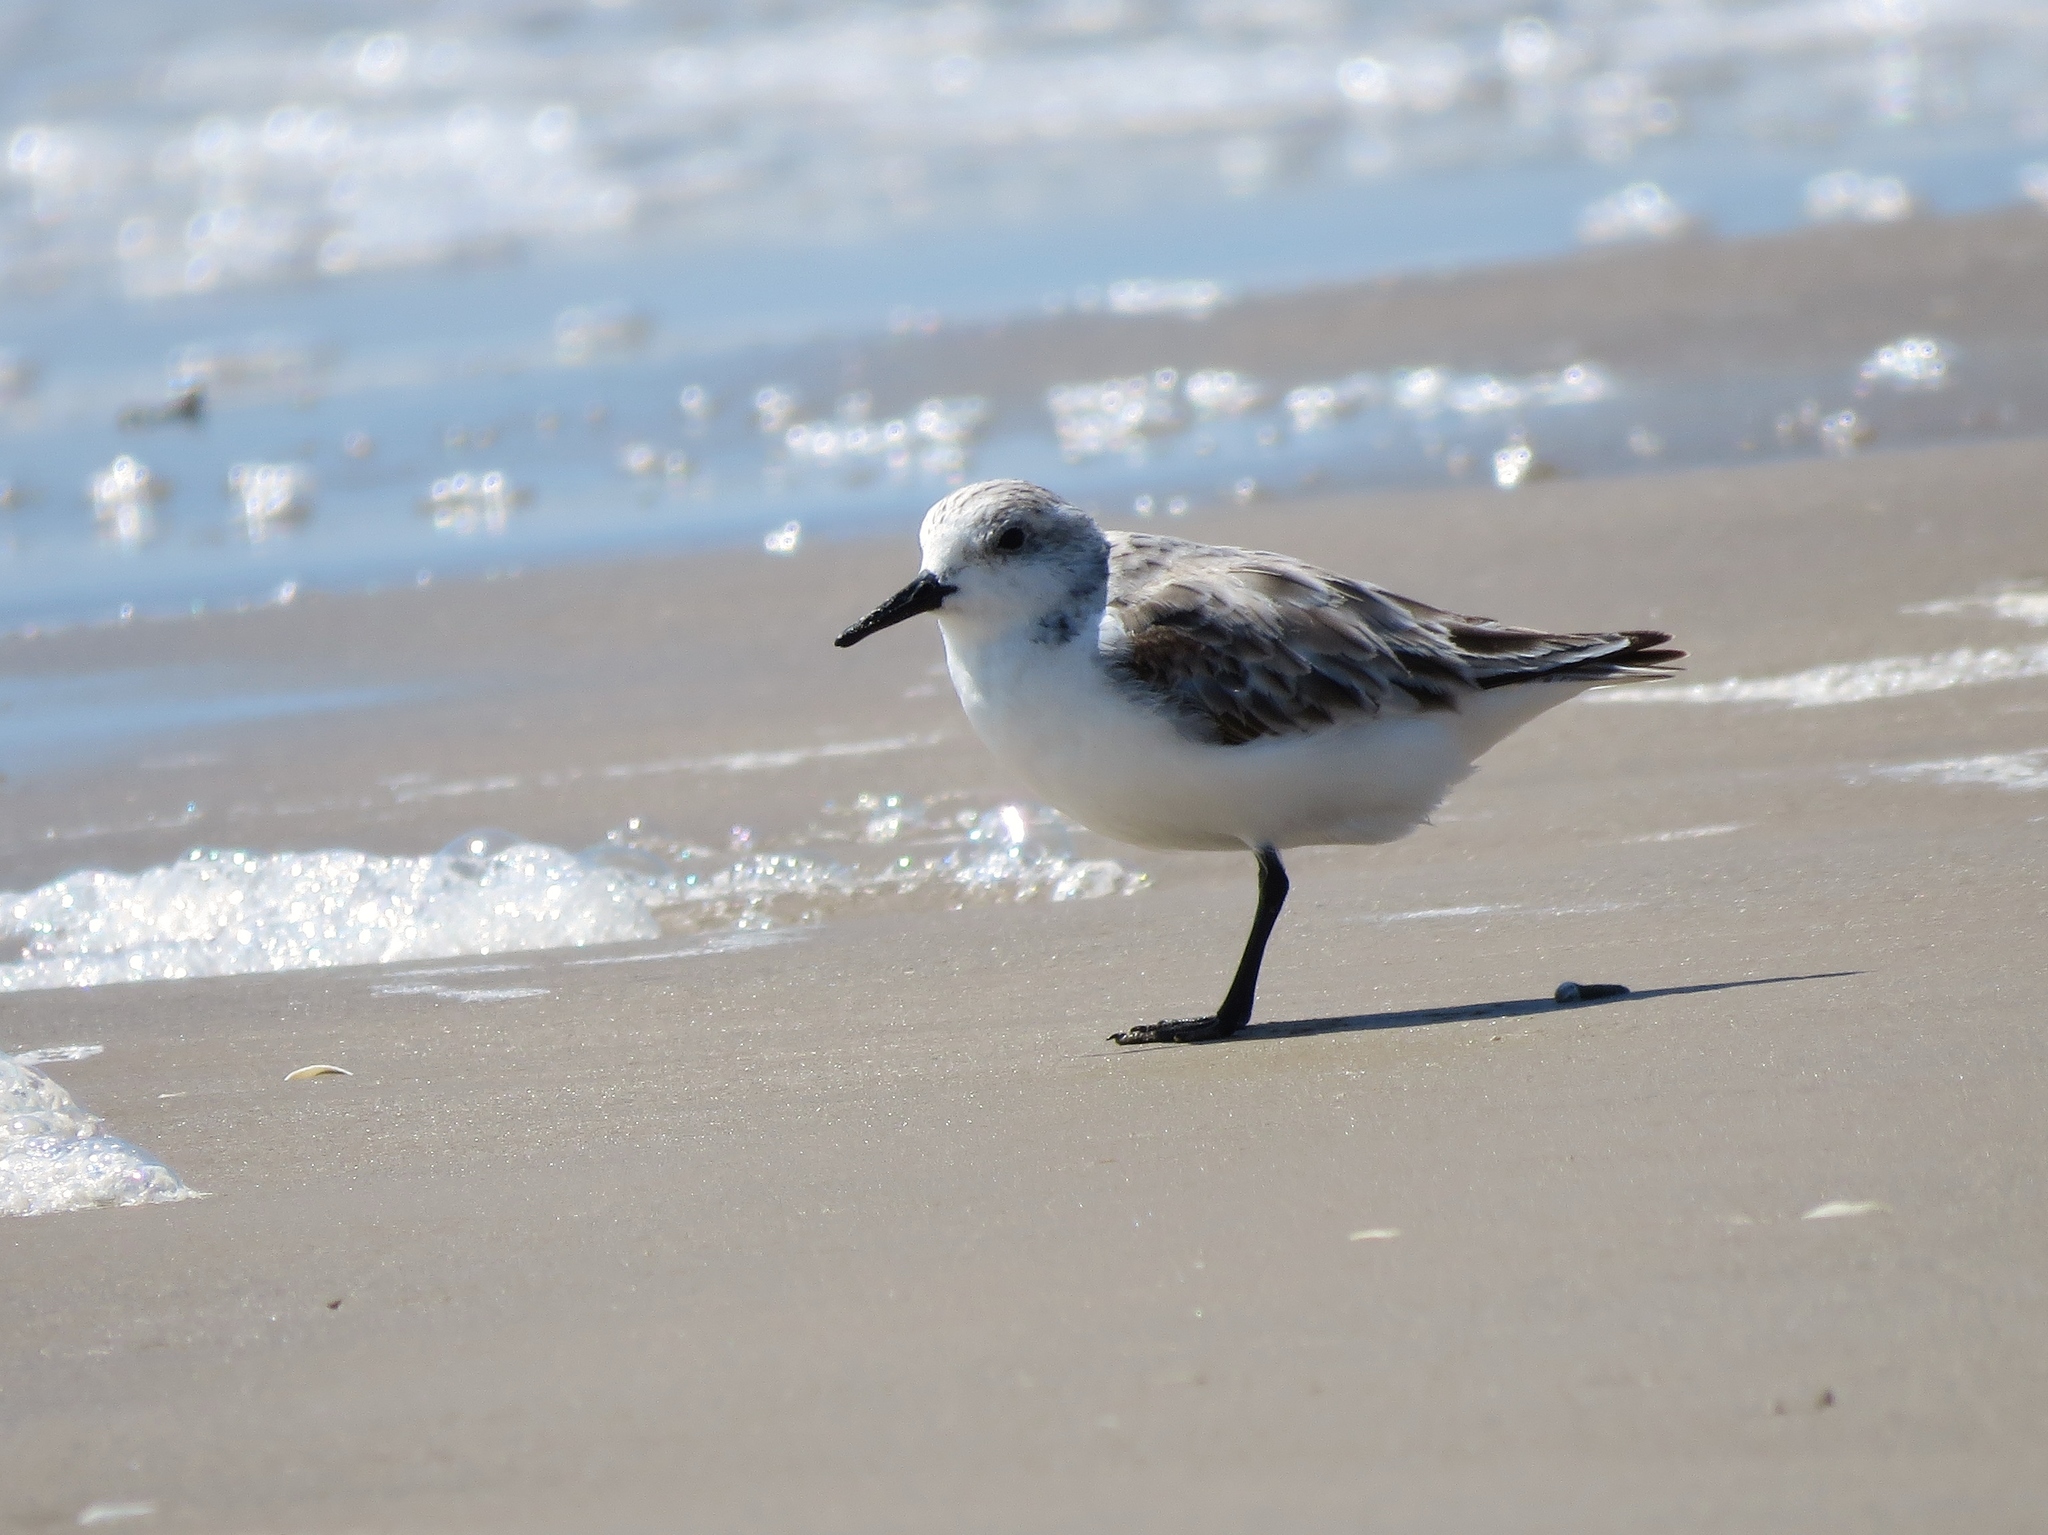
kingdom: Animalia
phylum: Chordata
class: Aves
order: Charadriiformes
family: Scolopacidae
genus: Calidris
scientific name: Calidris alba
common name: Sanderling
